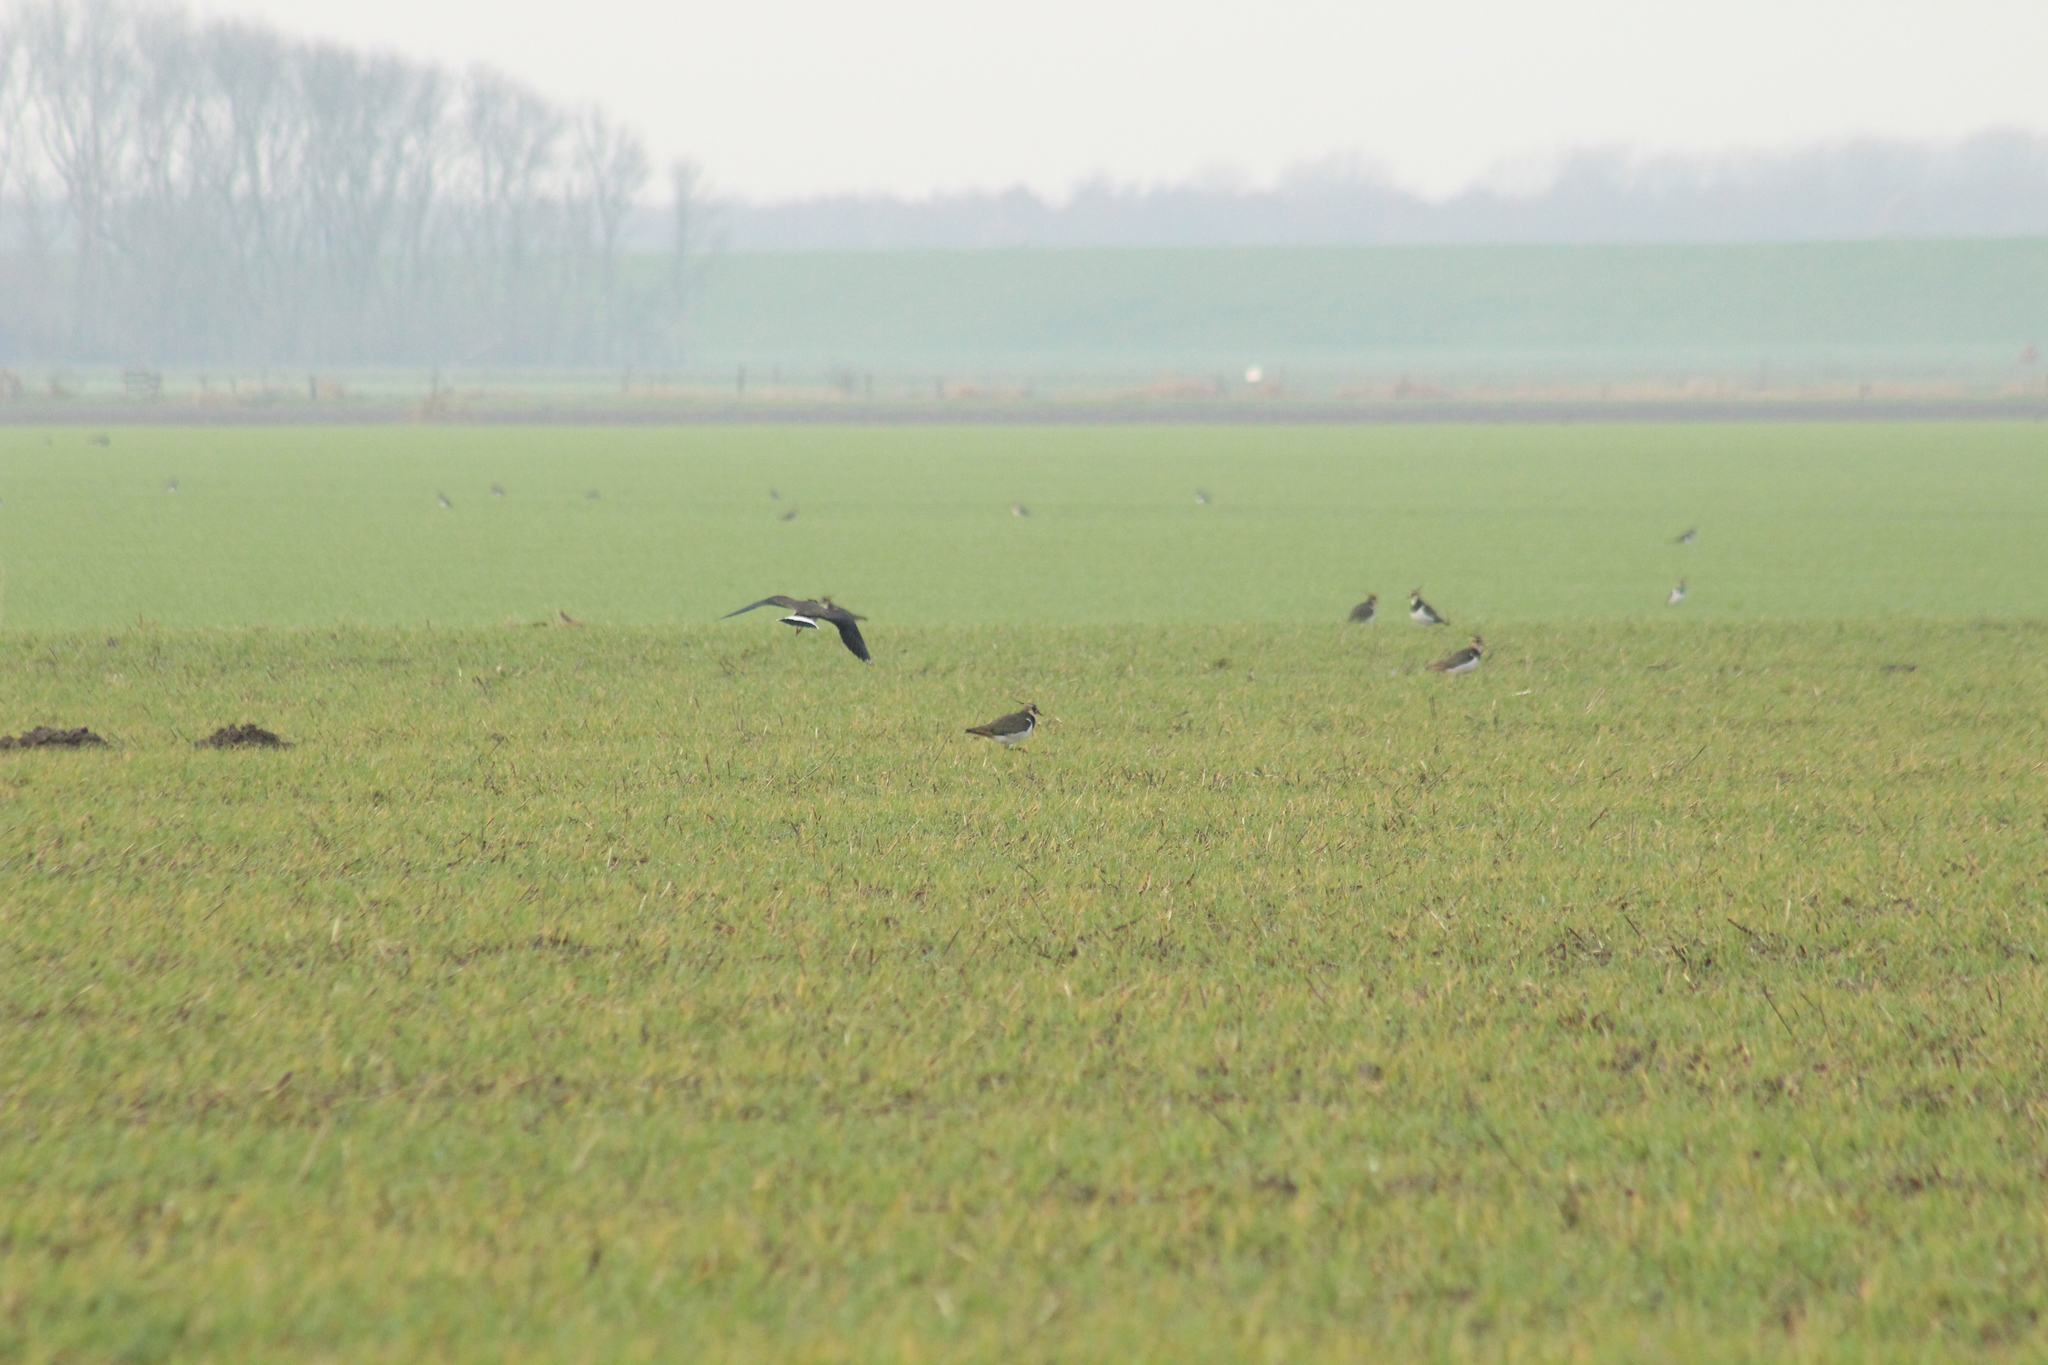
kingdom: Animalia
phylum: Chordata
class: Aves
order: Charadriiformes
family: Charadriidae
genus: Vanellus
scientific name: Vanellus vanellus
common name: Northern lapwing
